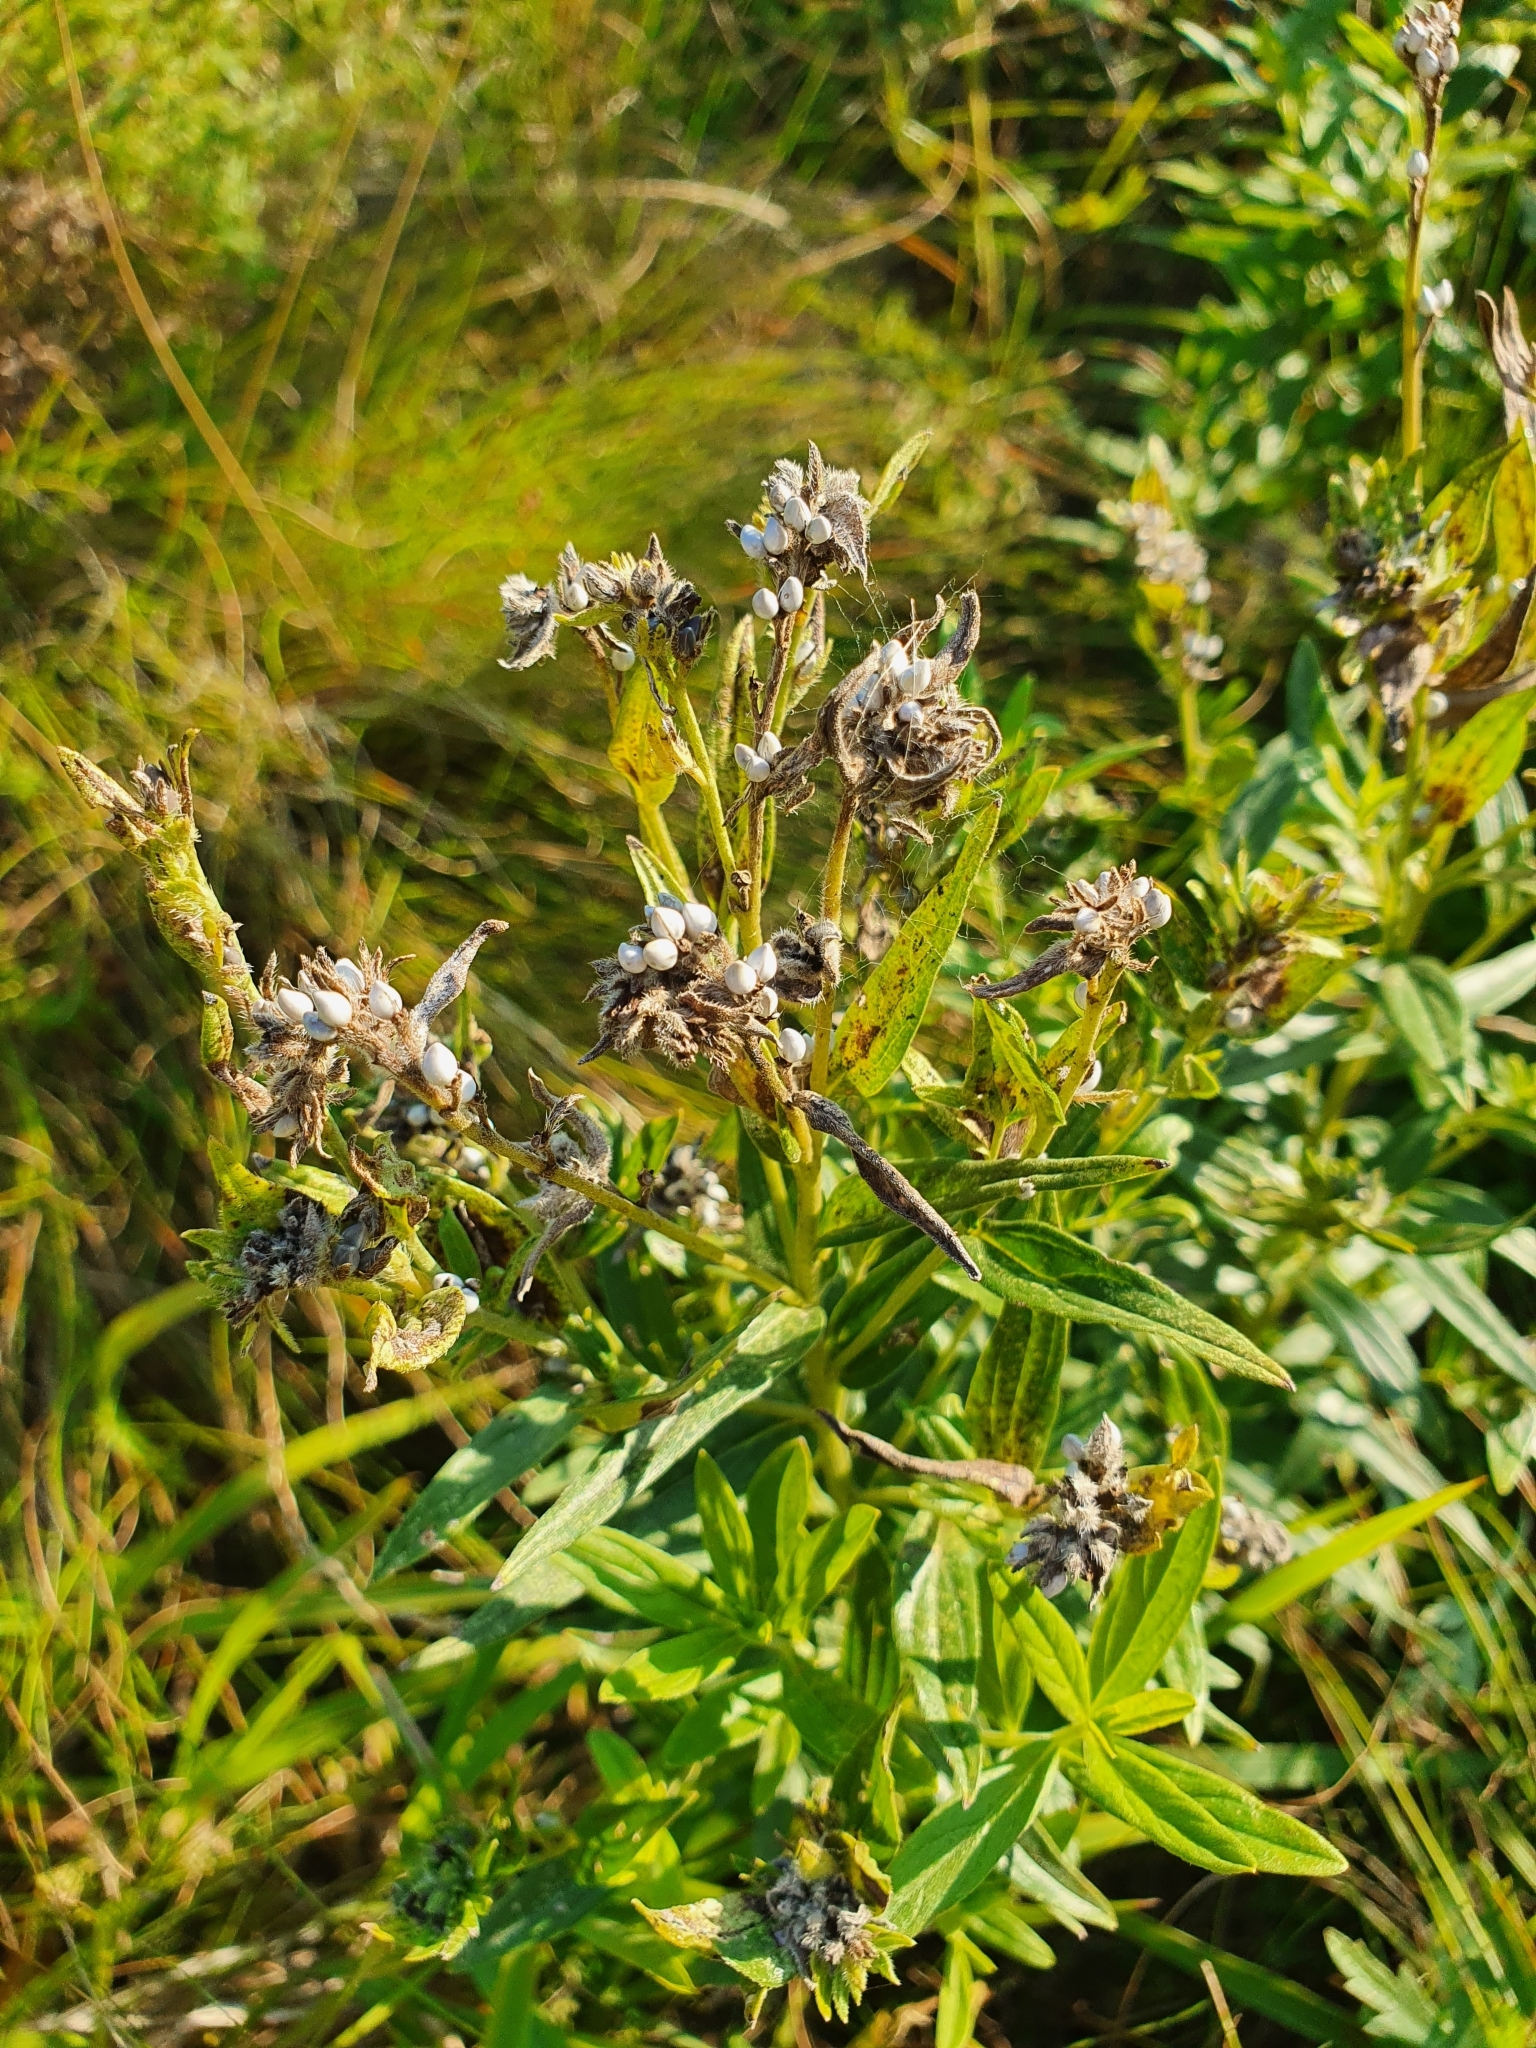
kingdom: Plantae
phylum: Tracheophyta
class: Magnoliopsida
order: Boraginales
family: Boraginaceae
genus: Lithospermum
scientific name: Lithospermum officinale
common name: Common gromwell
